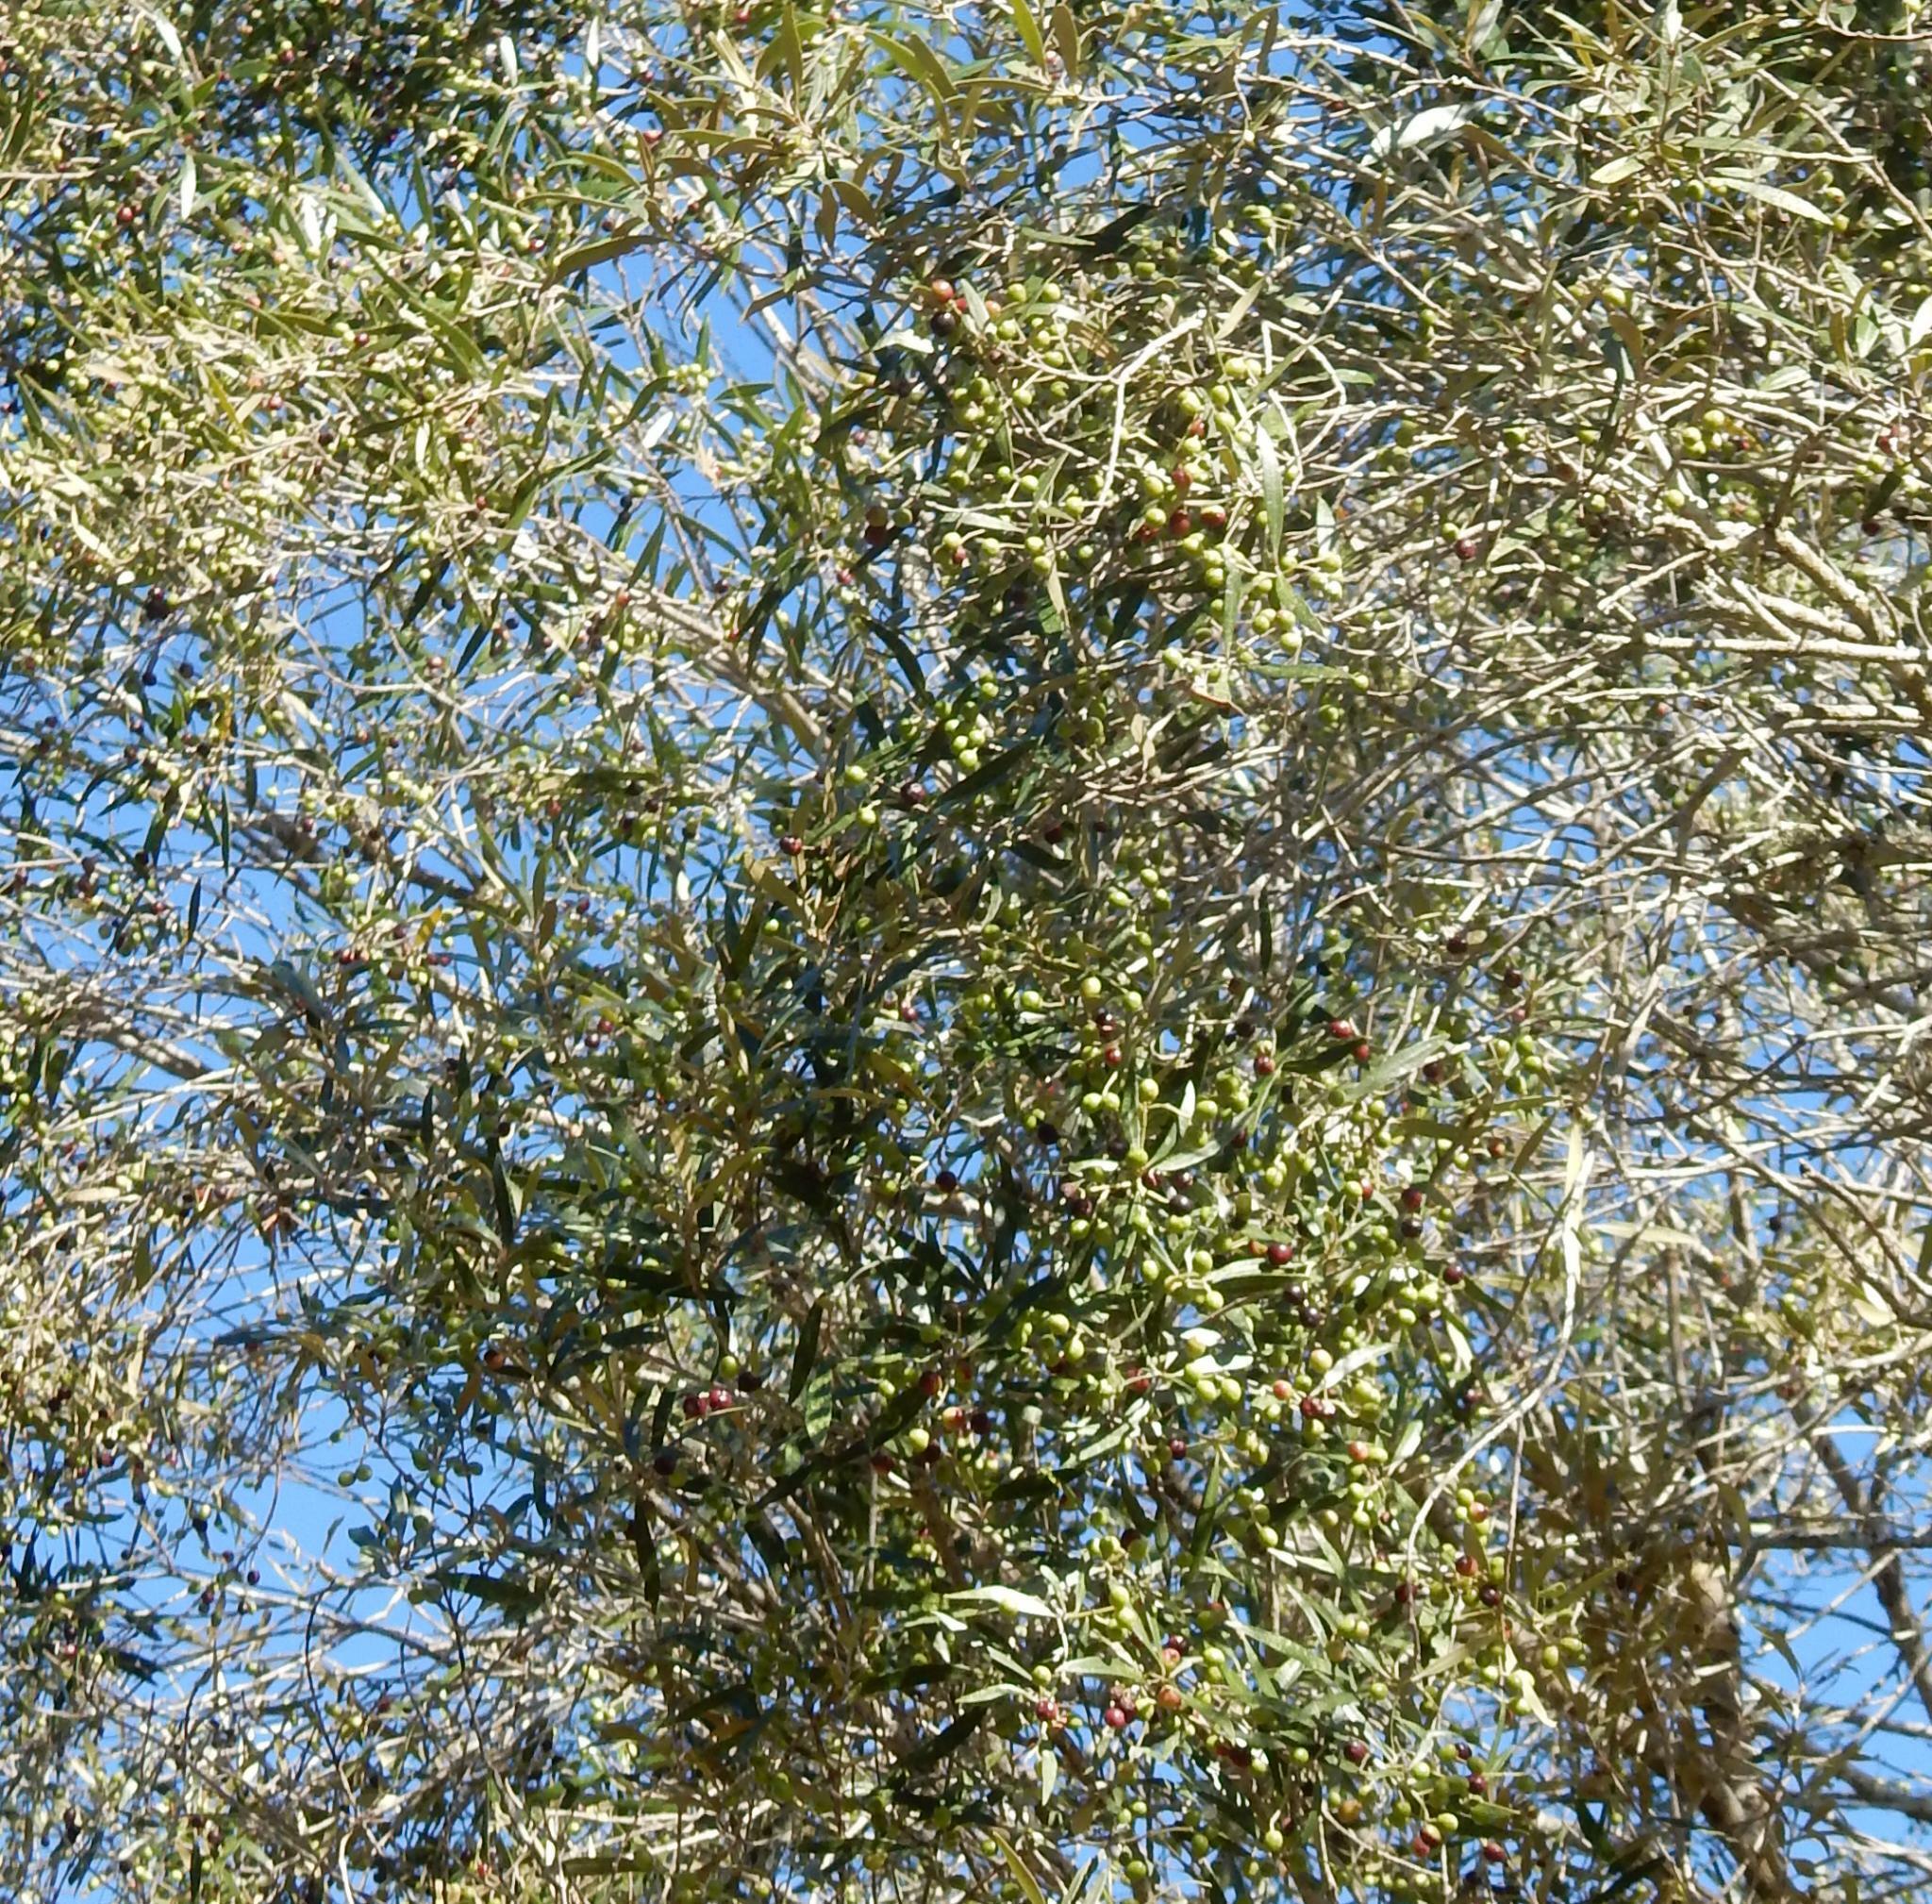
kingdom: Plantae
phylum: Tracheophyta
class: Magnoliopsida
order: Lamiales
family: Oleaceae
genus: Olea
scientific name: Olea europaea
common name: Olive
